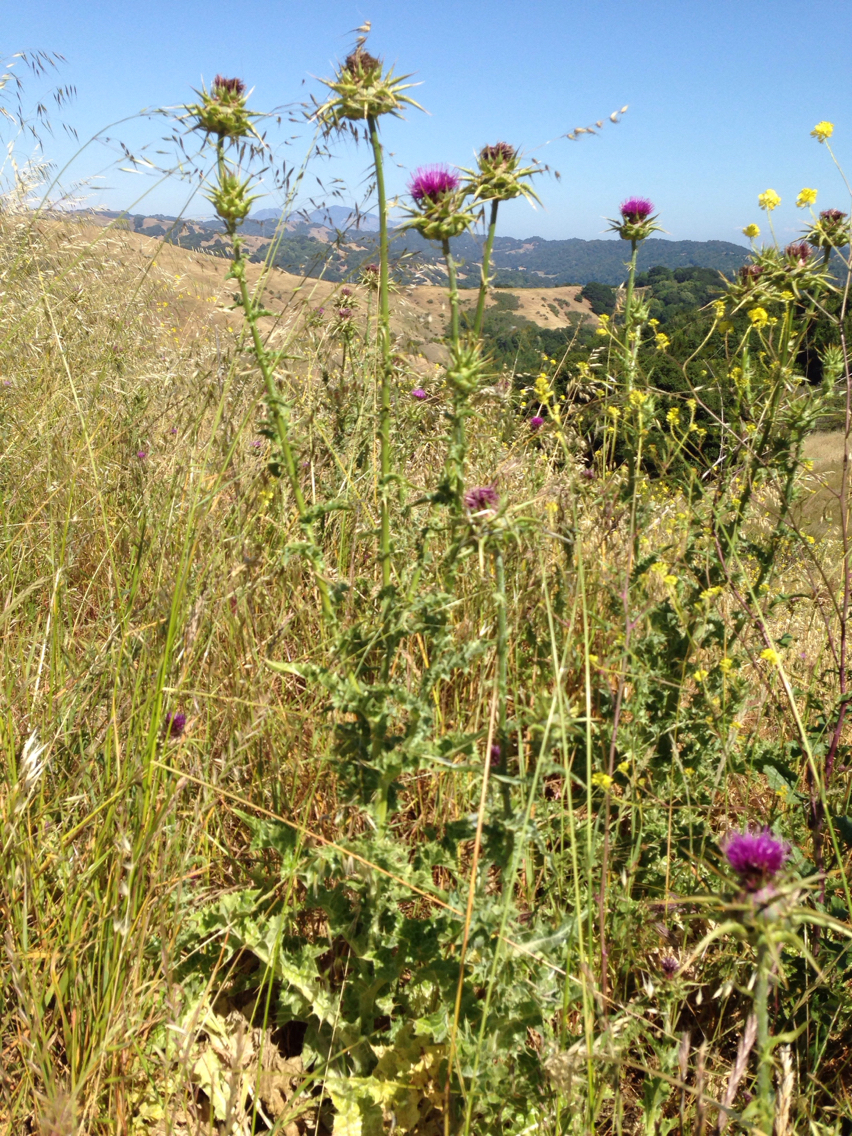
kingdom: Plantae
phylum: Tracheophyta
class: Magnoliopsida
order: Asterales
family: Asteraceae
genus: Silybum
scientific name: Silybum marianum
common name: Milk thistle
